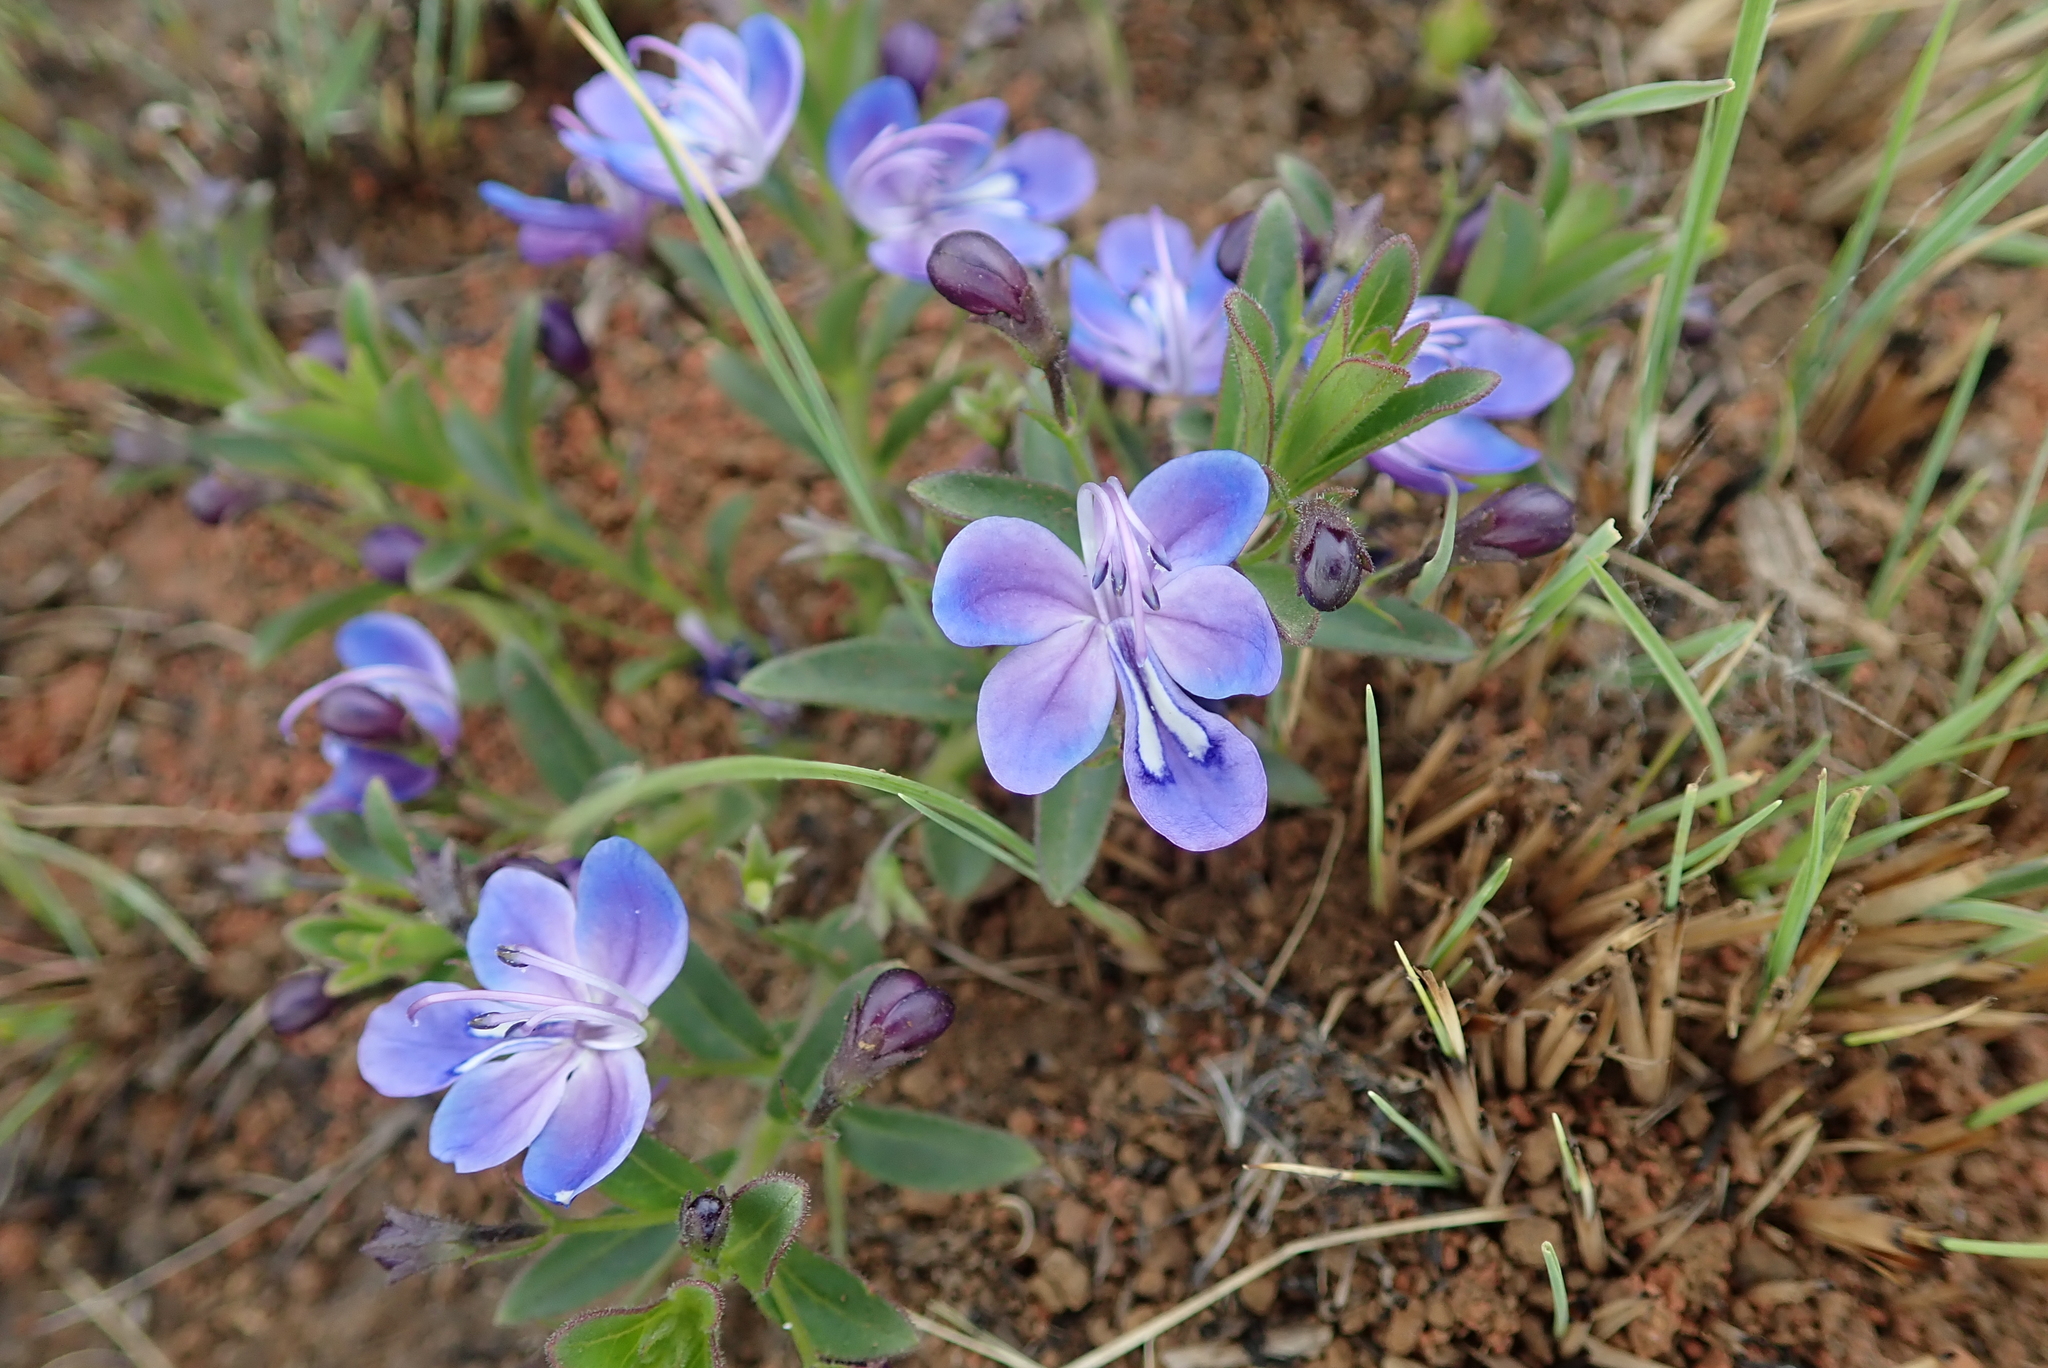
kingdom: Plantae
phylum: Tracheophyta
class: Magnoliopsida
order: Lamiales
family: Lamiaceae
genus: Rotheca
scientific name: Rotheca hirsuta
